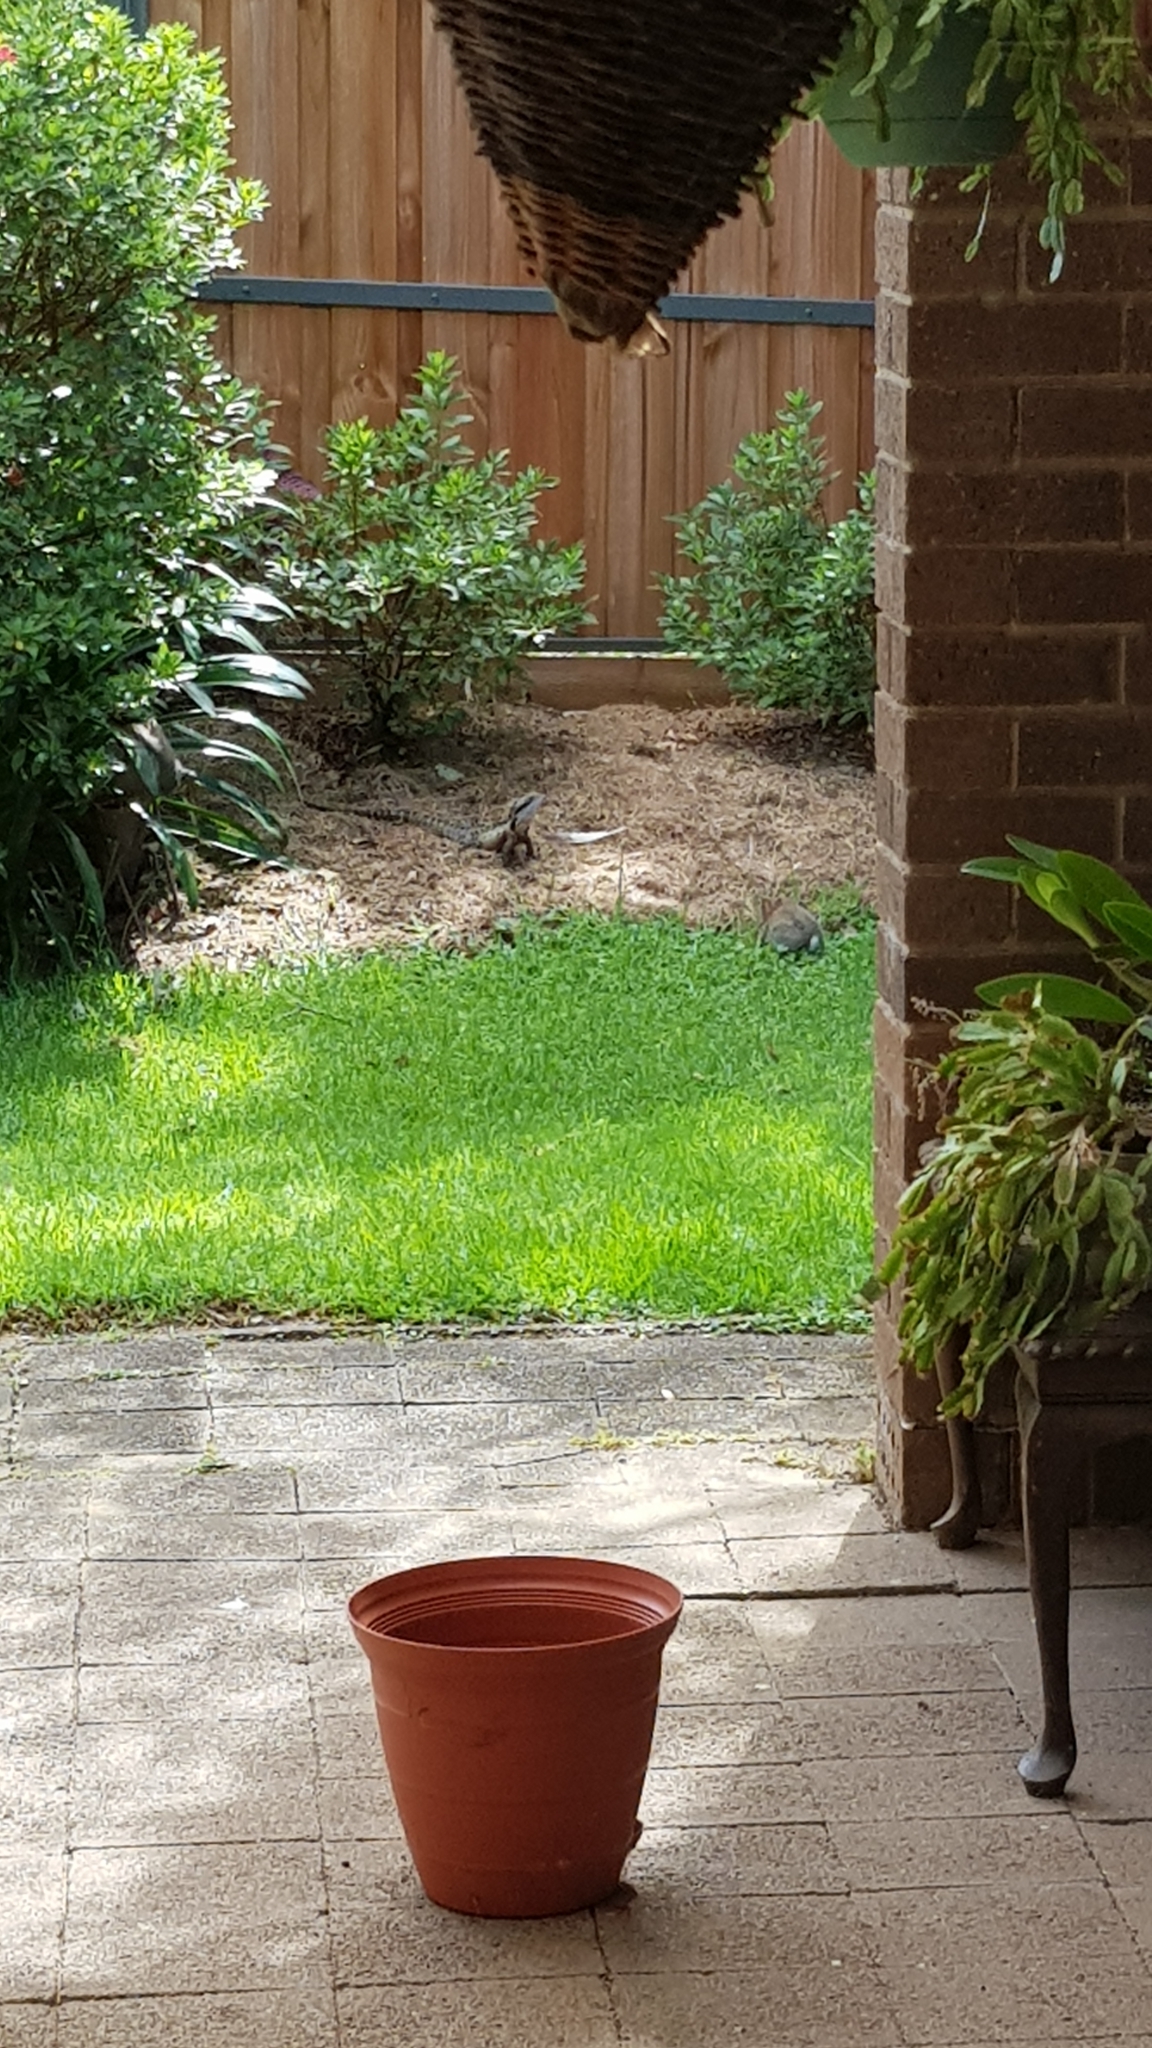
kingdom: Animalia
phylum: Chordata
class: Mammalia
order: Lagomorpha
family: Leporidae
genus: Oryctolagus
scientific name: Oryctolagus cuniculus
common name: European rabbit
